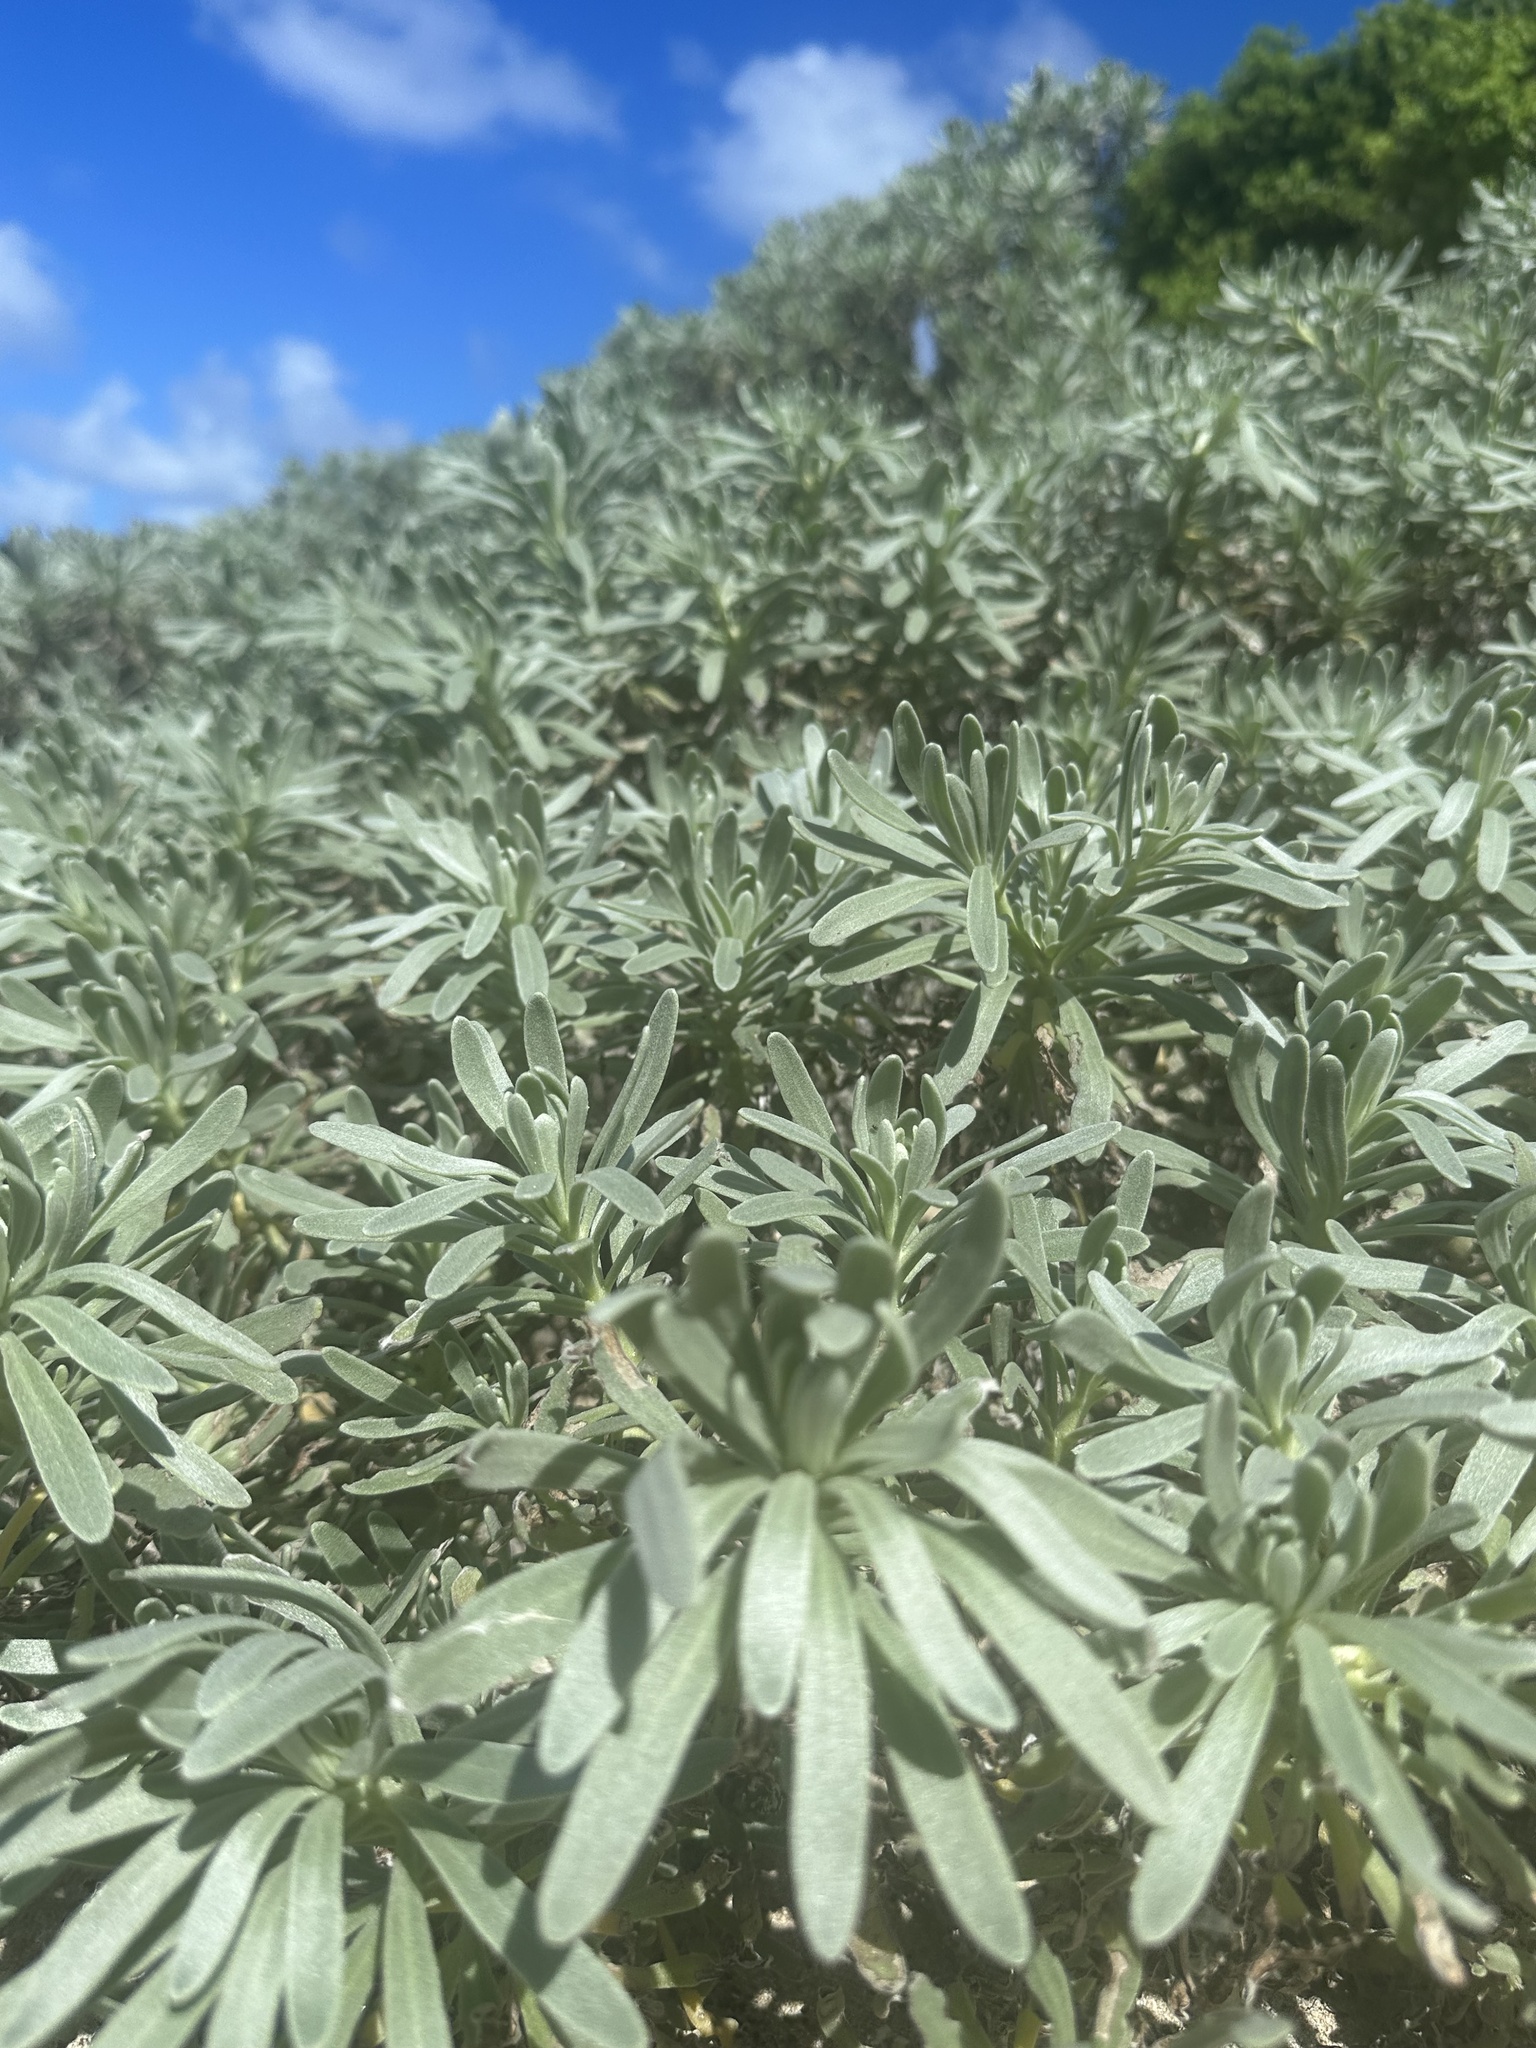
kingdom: Plantae
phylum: Tracheophyta
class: Magnoliopsida
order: Boraginales
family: Heliotropiaceae
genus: Tournefortia
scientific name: Tournefortia gnaphalodes
